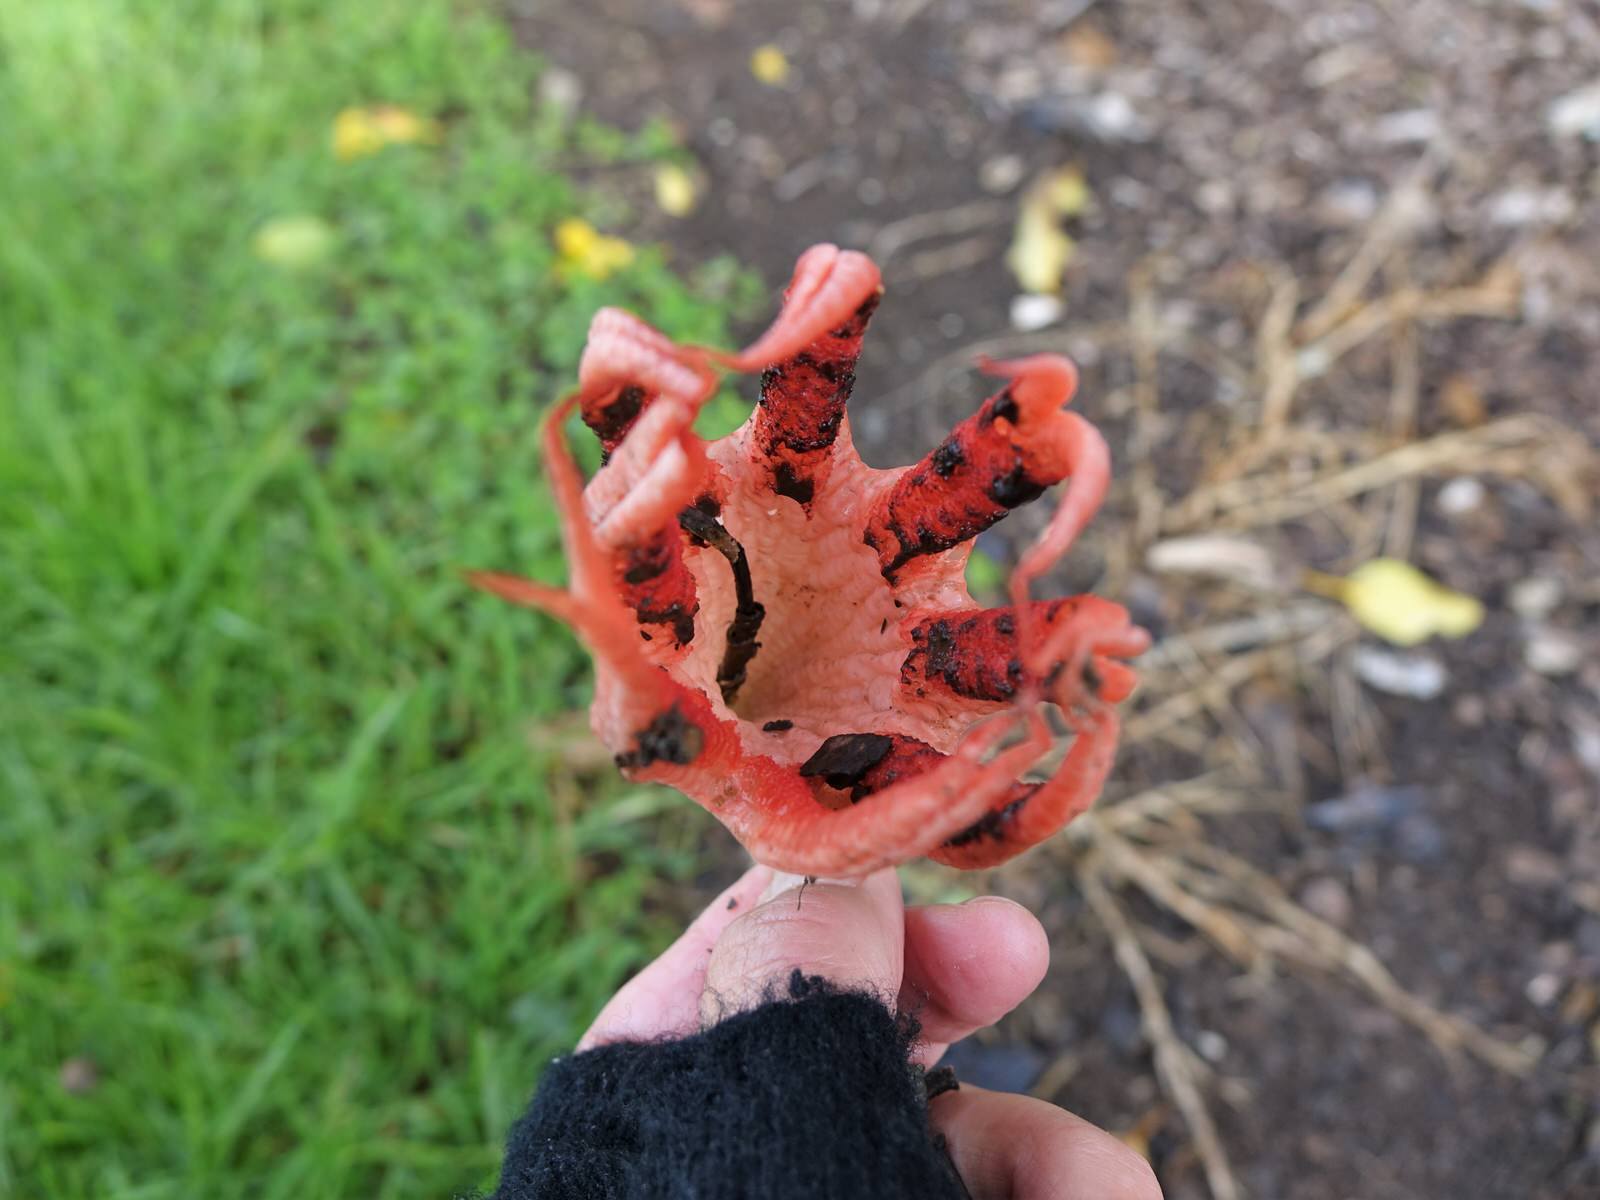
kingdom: Fungi
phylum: Basidiomycota
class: Agaricomycetes
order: Phallales
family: Phallaceae
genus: Clathrus
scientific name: Clathrus archeri
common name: Devil's fingers
